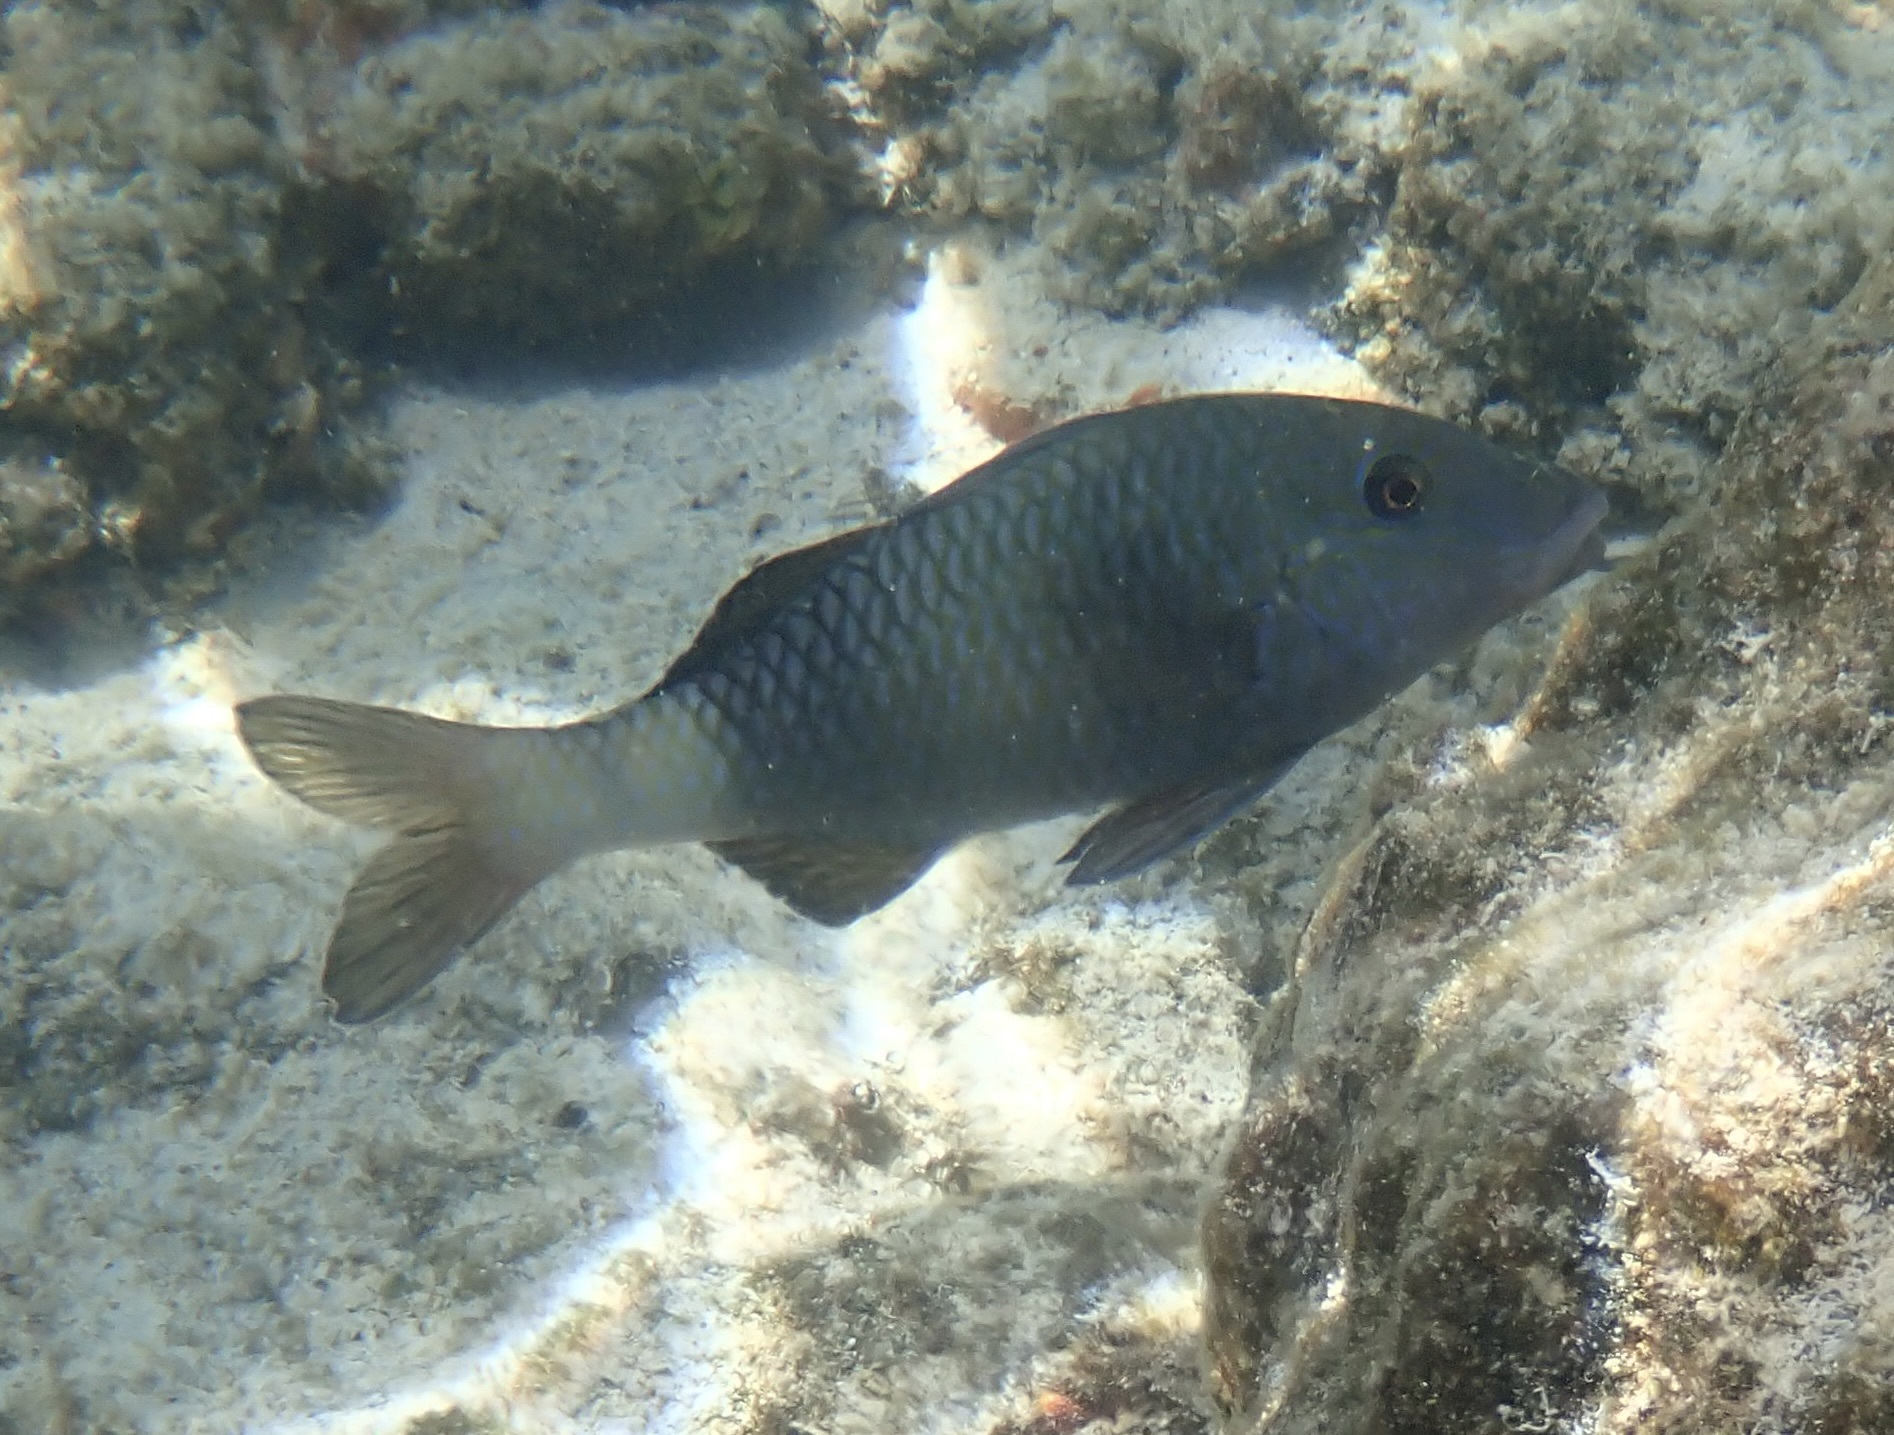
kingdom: Animalia
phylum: Chordata
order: Perciformes
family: Mullidae
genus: Parupeneus
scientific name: Parupeneus insularis
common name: Doublebar goatfish
